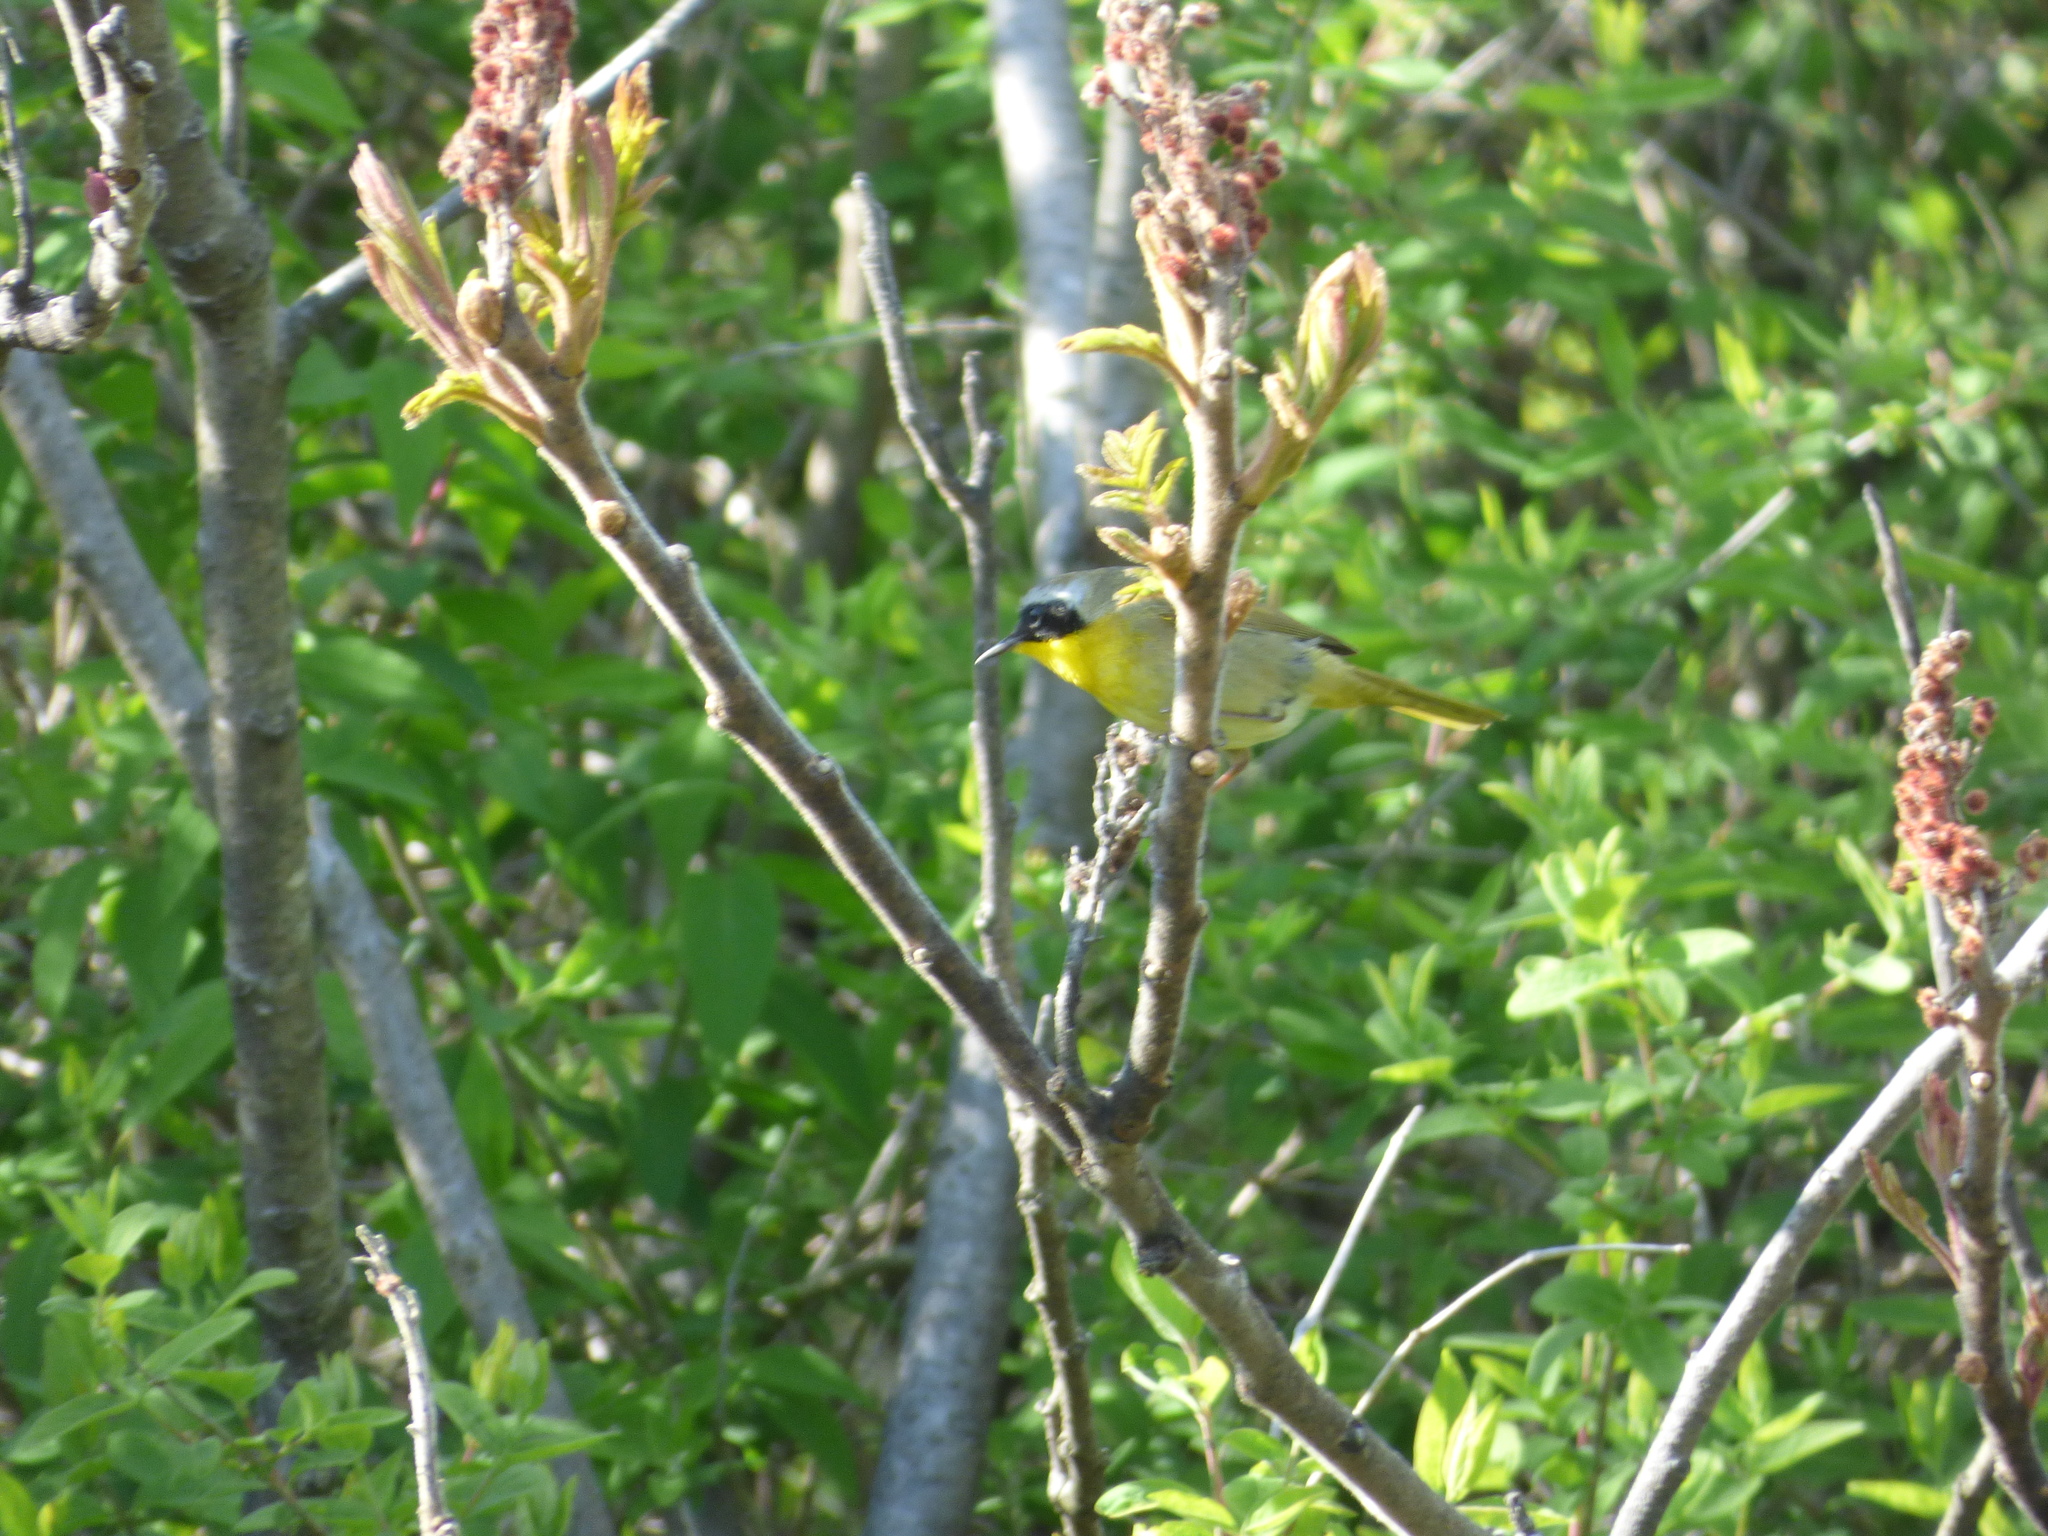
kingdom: Animalia
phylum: Chordata
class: Aves
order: Passeriformes
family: Parulidae
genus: Geothlypis
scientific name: Geothlypis trichas
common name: Common yellowthroat
